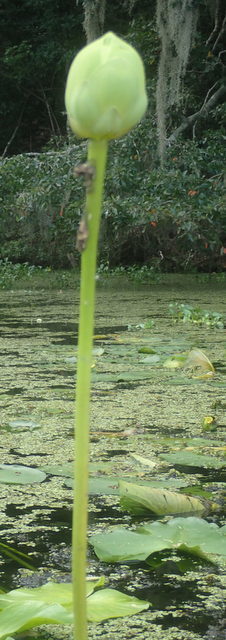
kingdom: Plantae
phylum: Tracheophyta
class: Magnoliopsida
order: Proteales
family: Nelumbonaceae
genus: Nelumbo
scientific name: Nelumbo lutea
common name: American lotus
